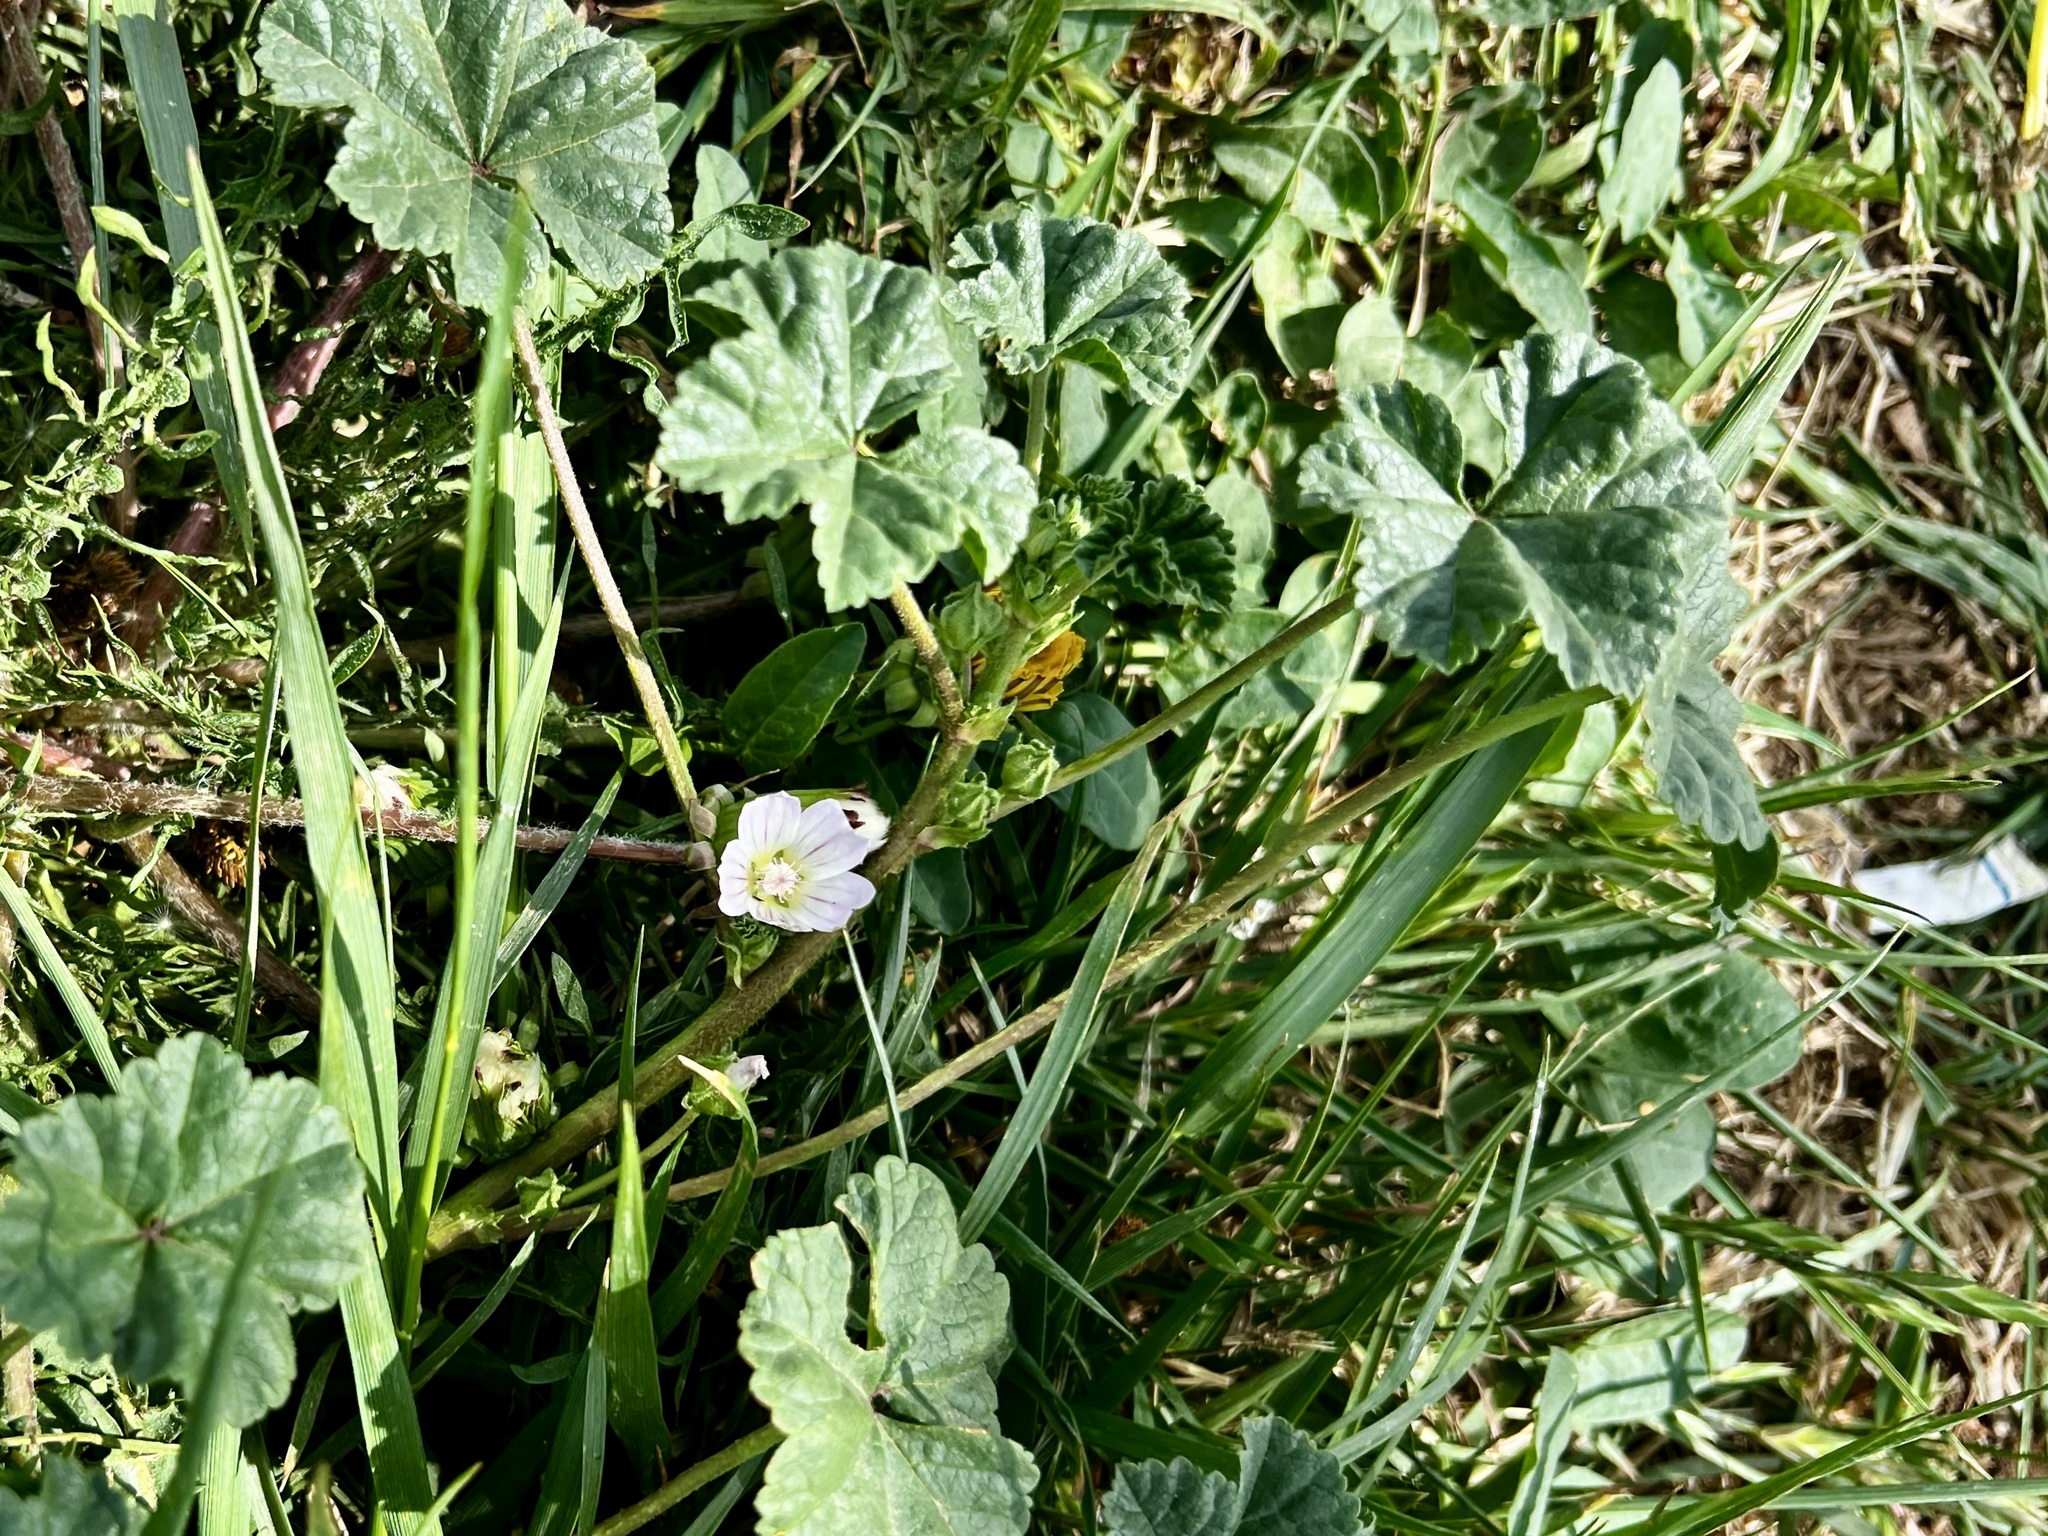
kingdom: Plantae
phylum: Tracheophyta
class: Magnoliopsida
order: Malvales
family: Malvaceae
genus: Malva
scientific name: Malva neglecta
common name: Common mallow
